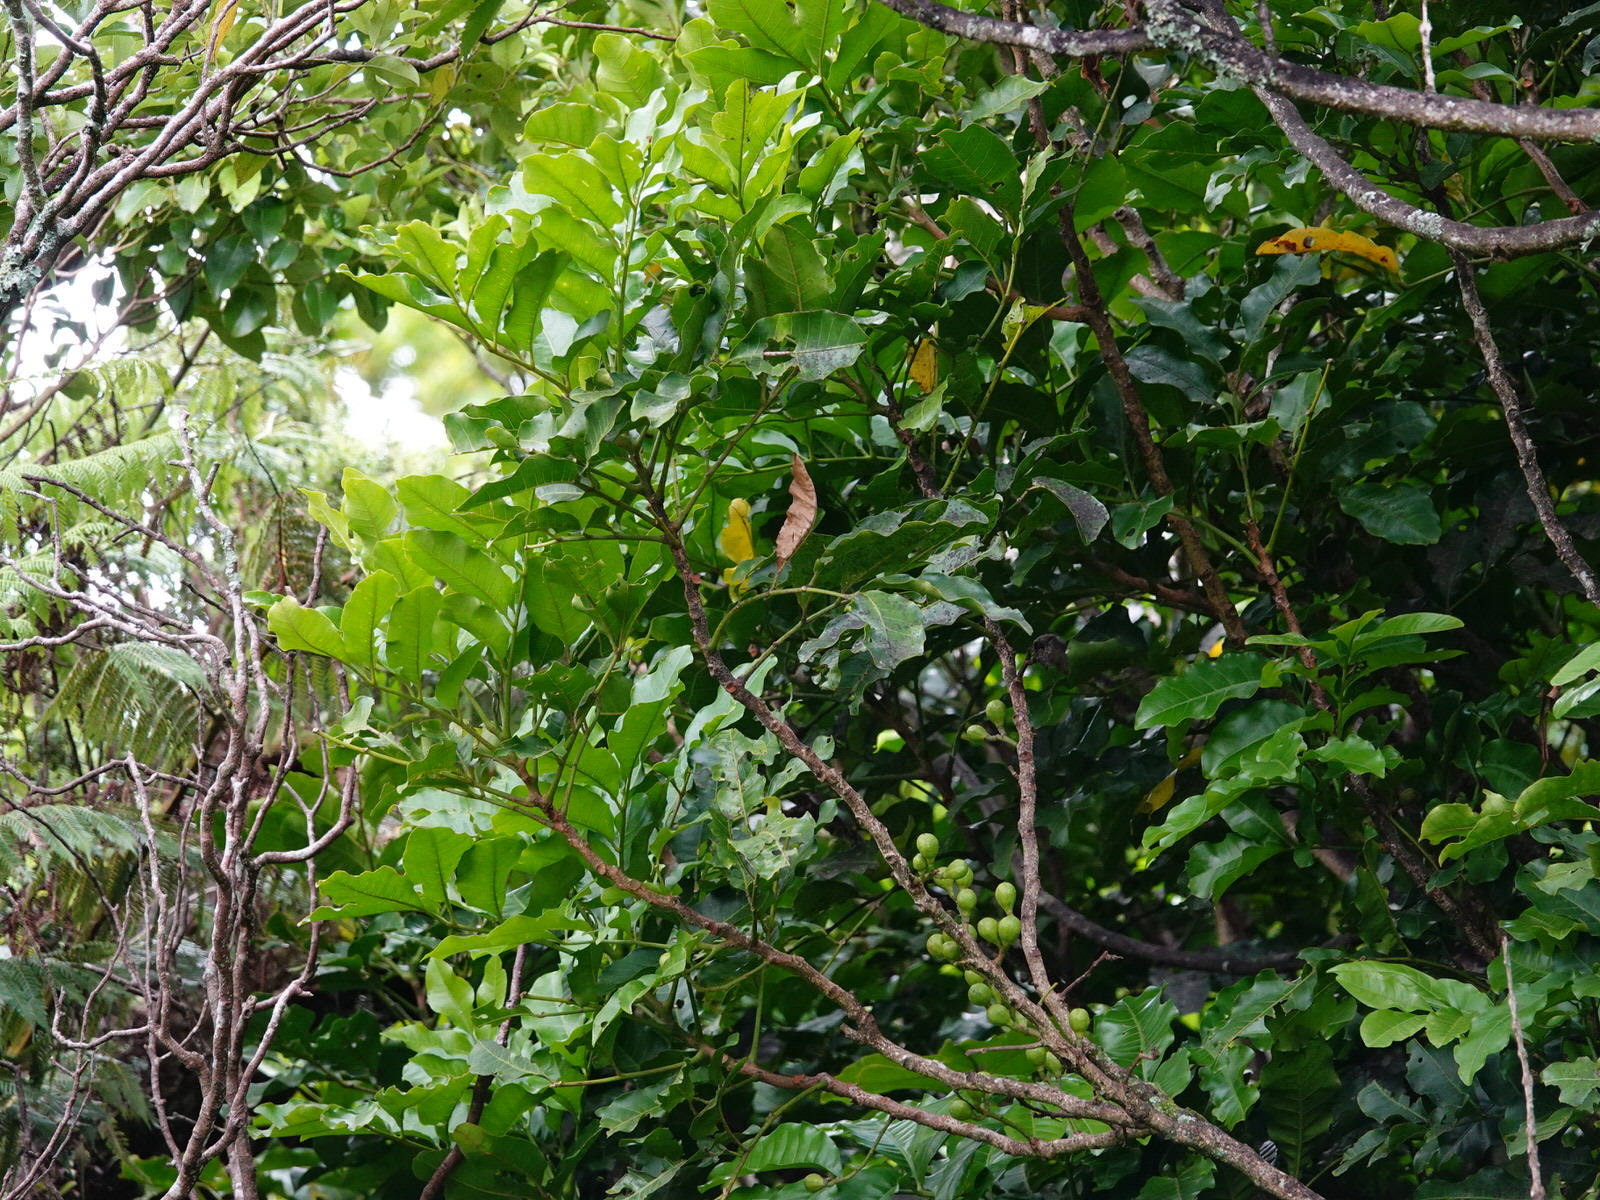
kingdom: Plantae
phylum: Tracheophyta
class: Magnoliopsida
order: Sapindales
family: Meliaceae
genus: Didymocheton
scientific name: Didymocheton spectabilis
